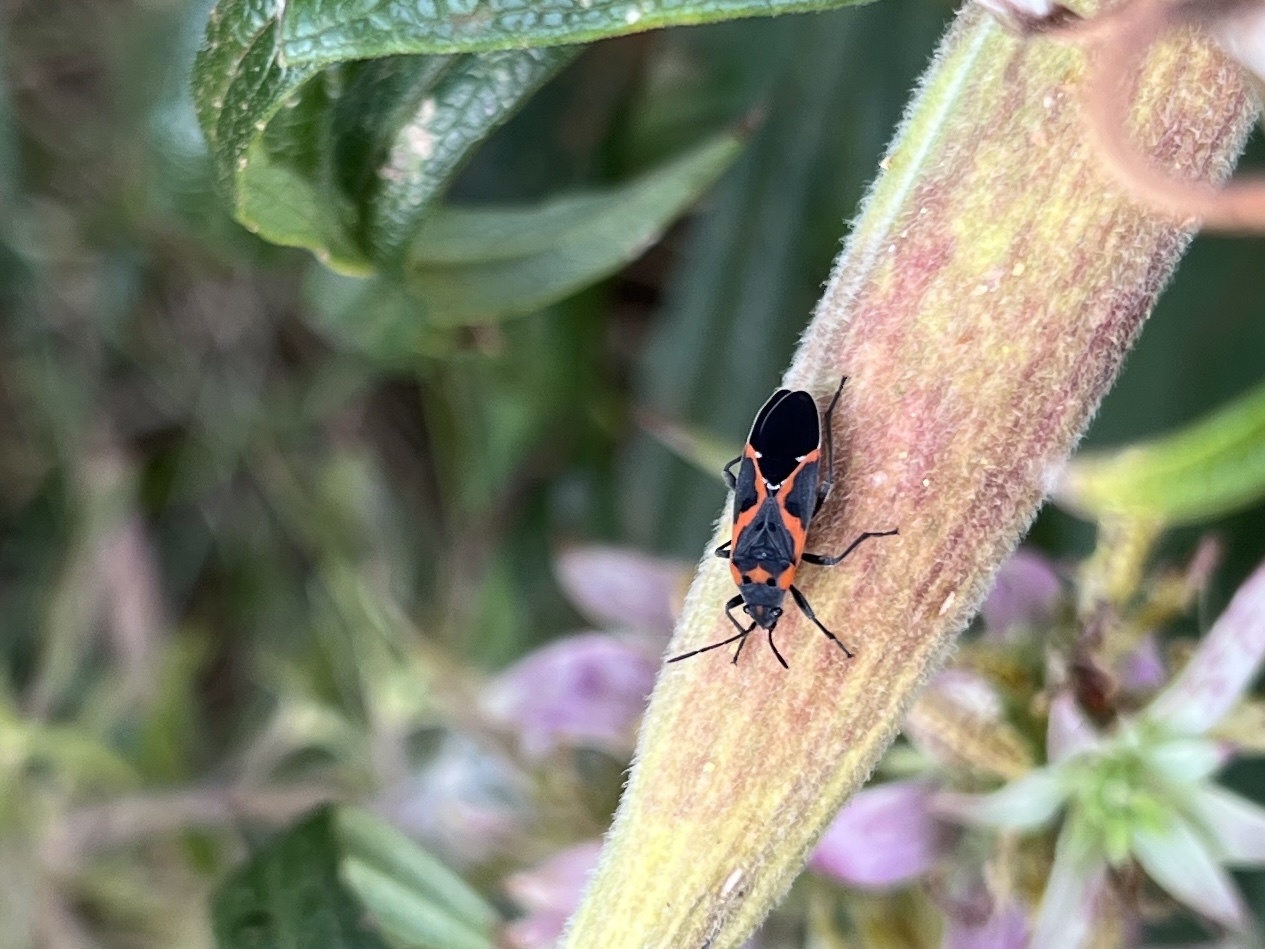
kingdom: Animalia
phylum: Arthropoda
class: Insecta
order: Hemiptera
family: Lygaeidae
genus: Lygaeus
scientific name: Lygaeus kalmii
